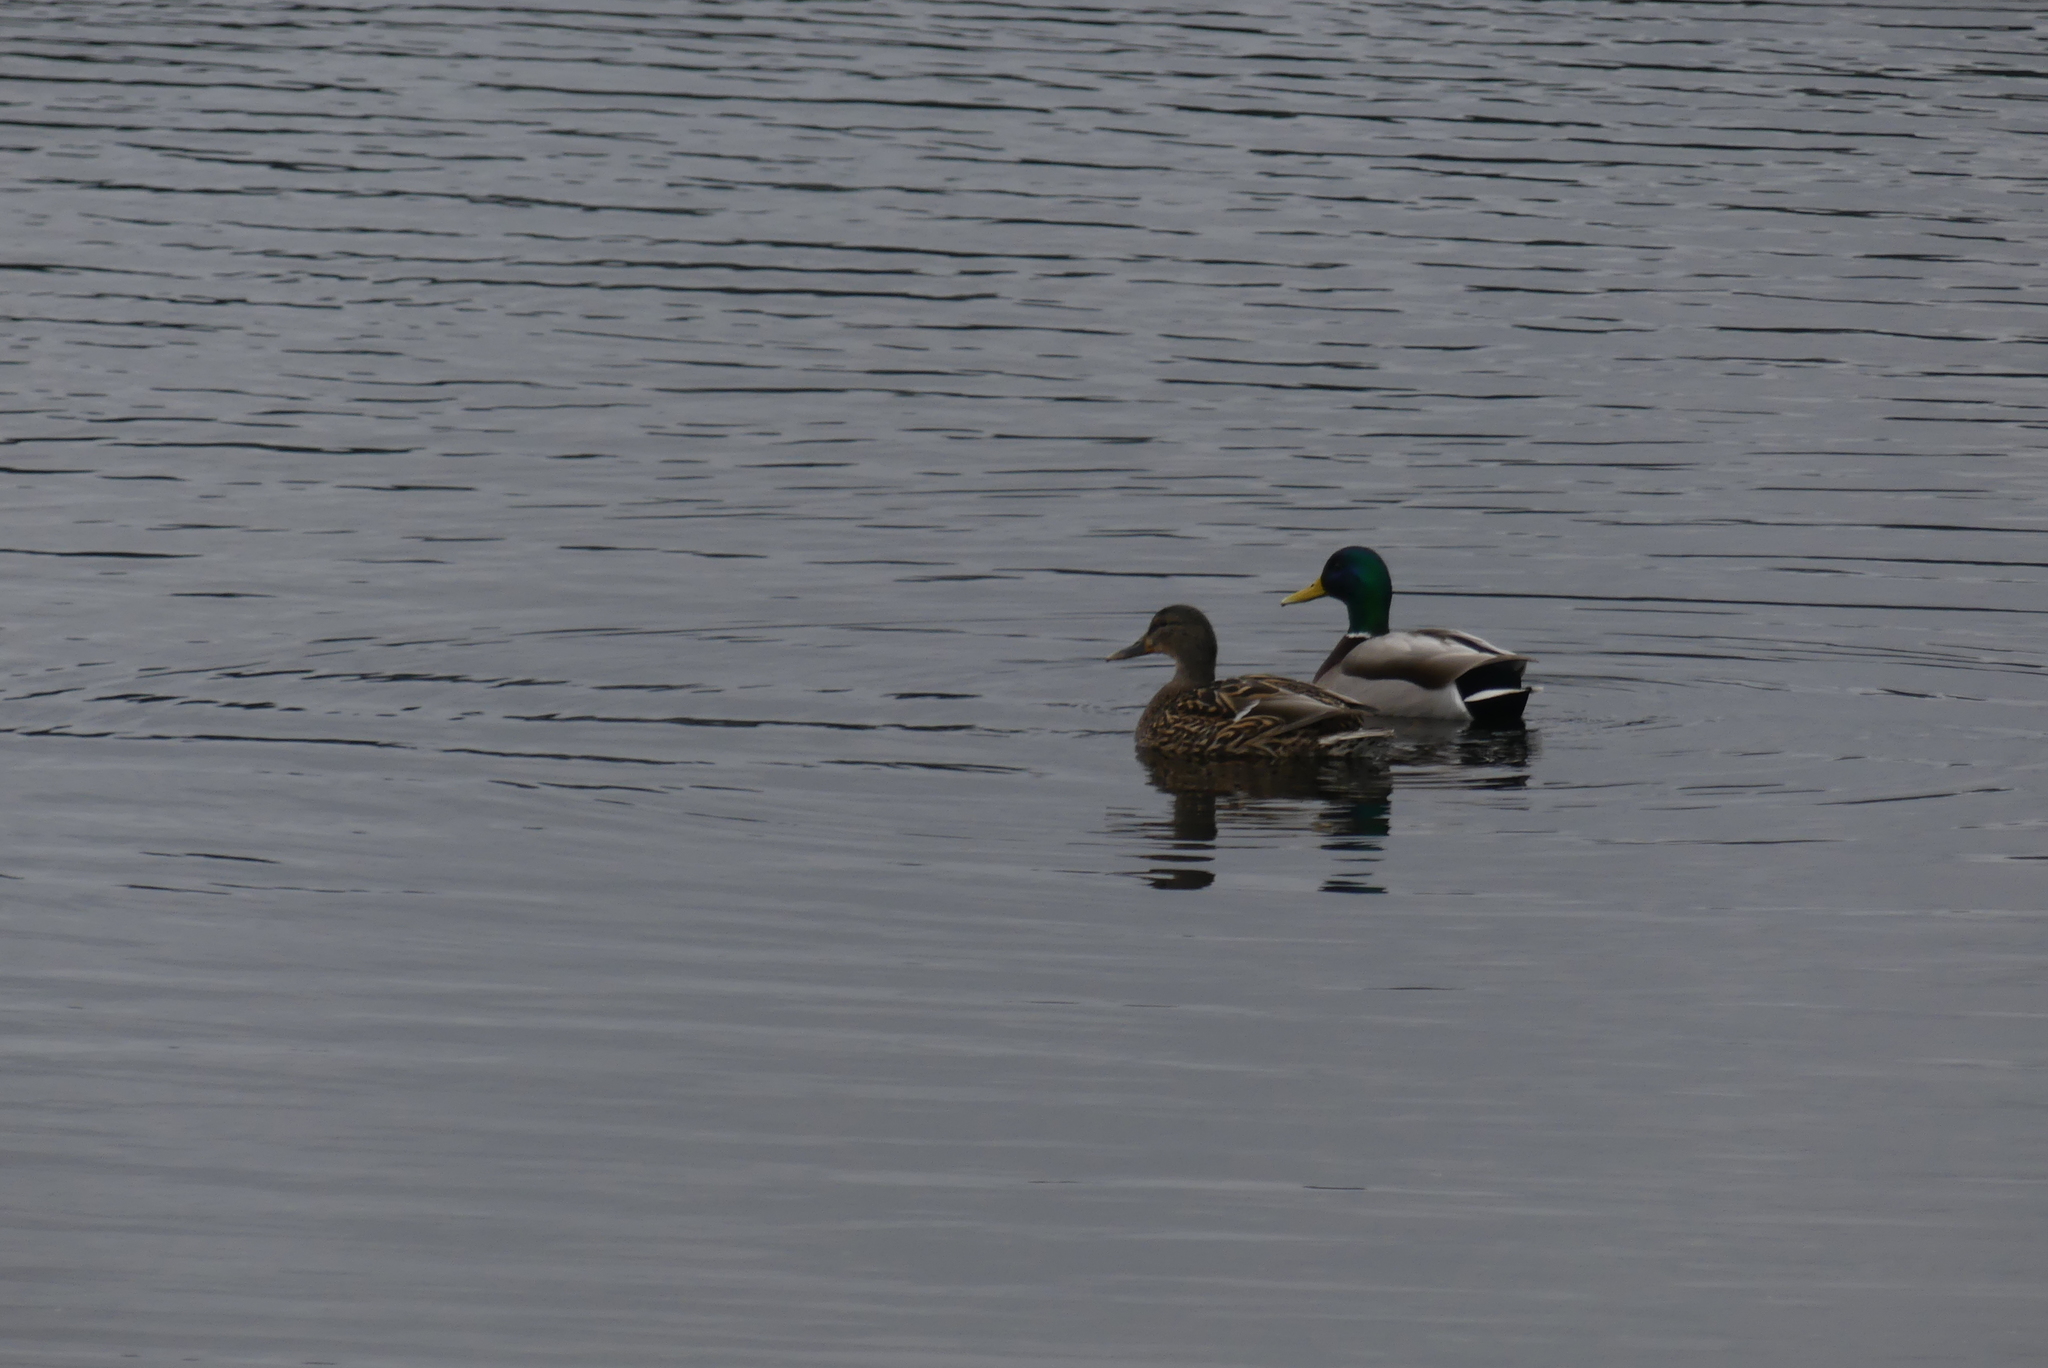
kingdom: Animalia
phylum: Chordata
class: Aves
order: Anseriformes
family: Anatidae
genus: Anas
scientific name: Anas platyrhynchos
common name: Mallard
